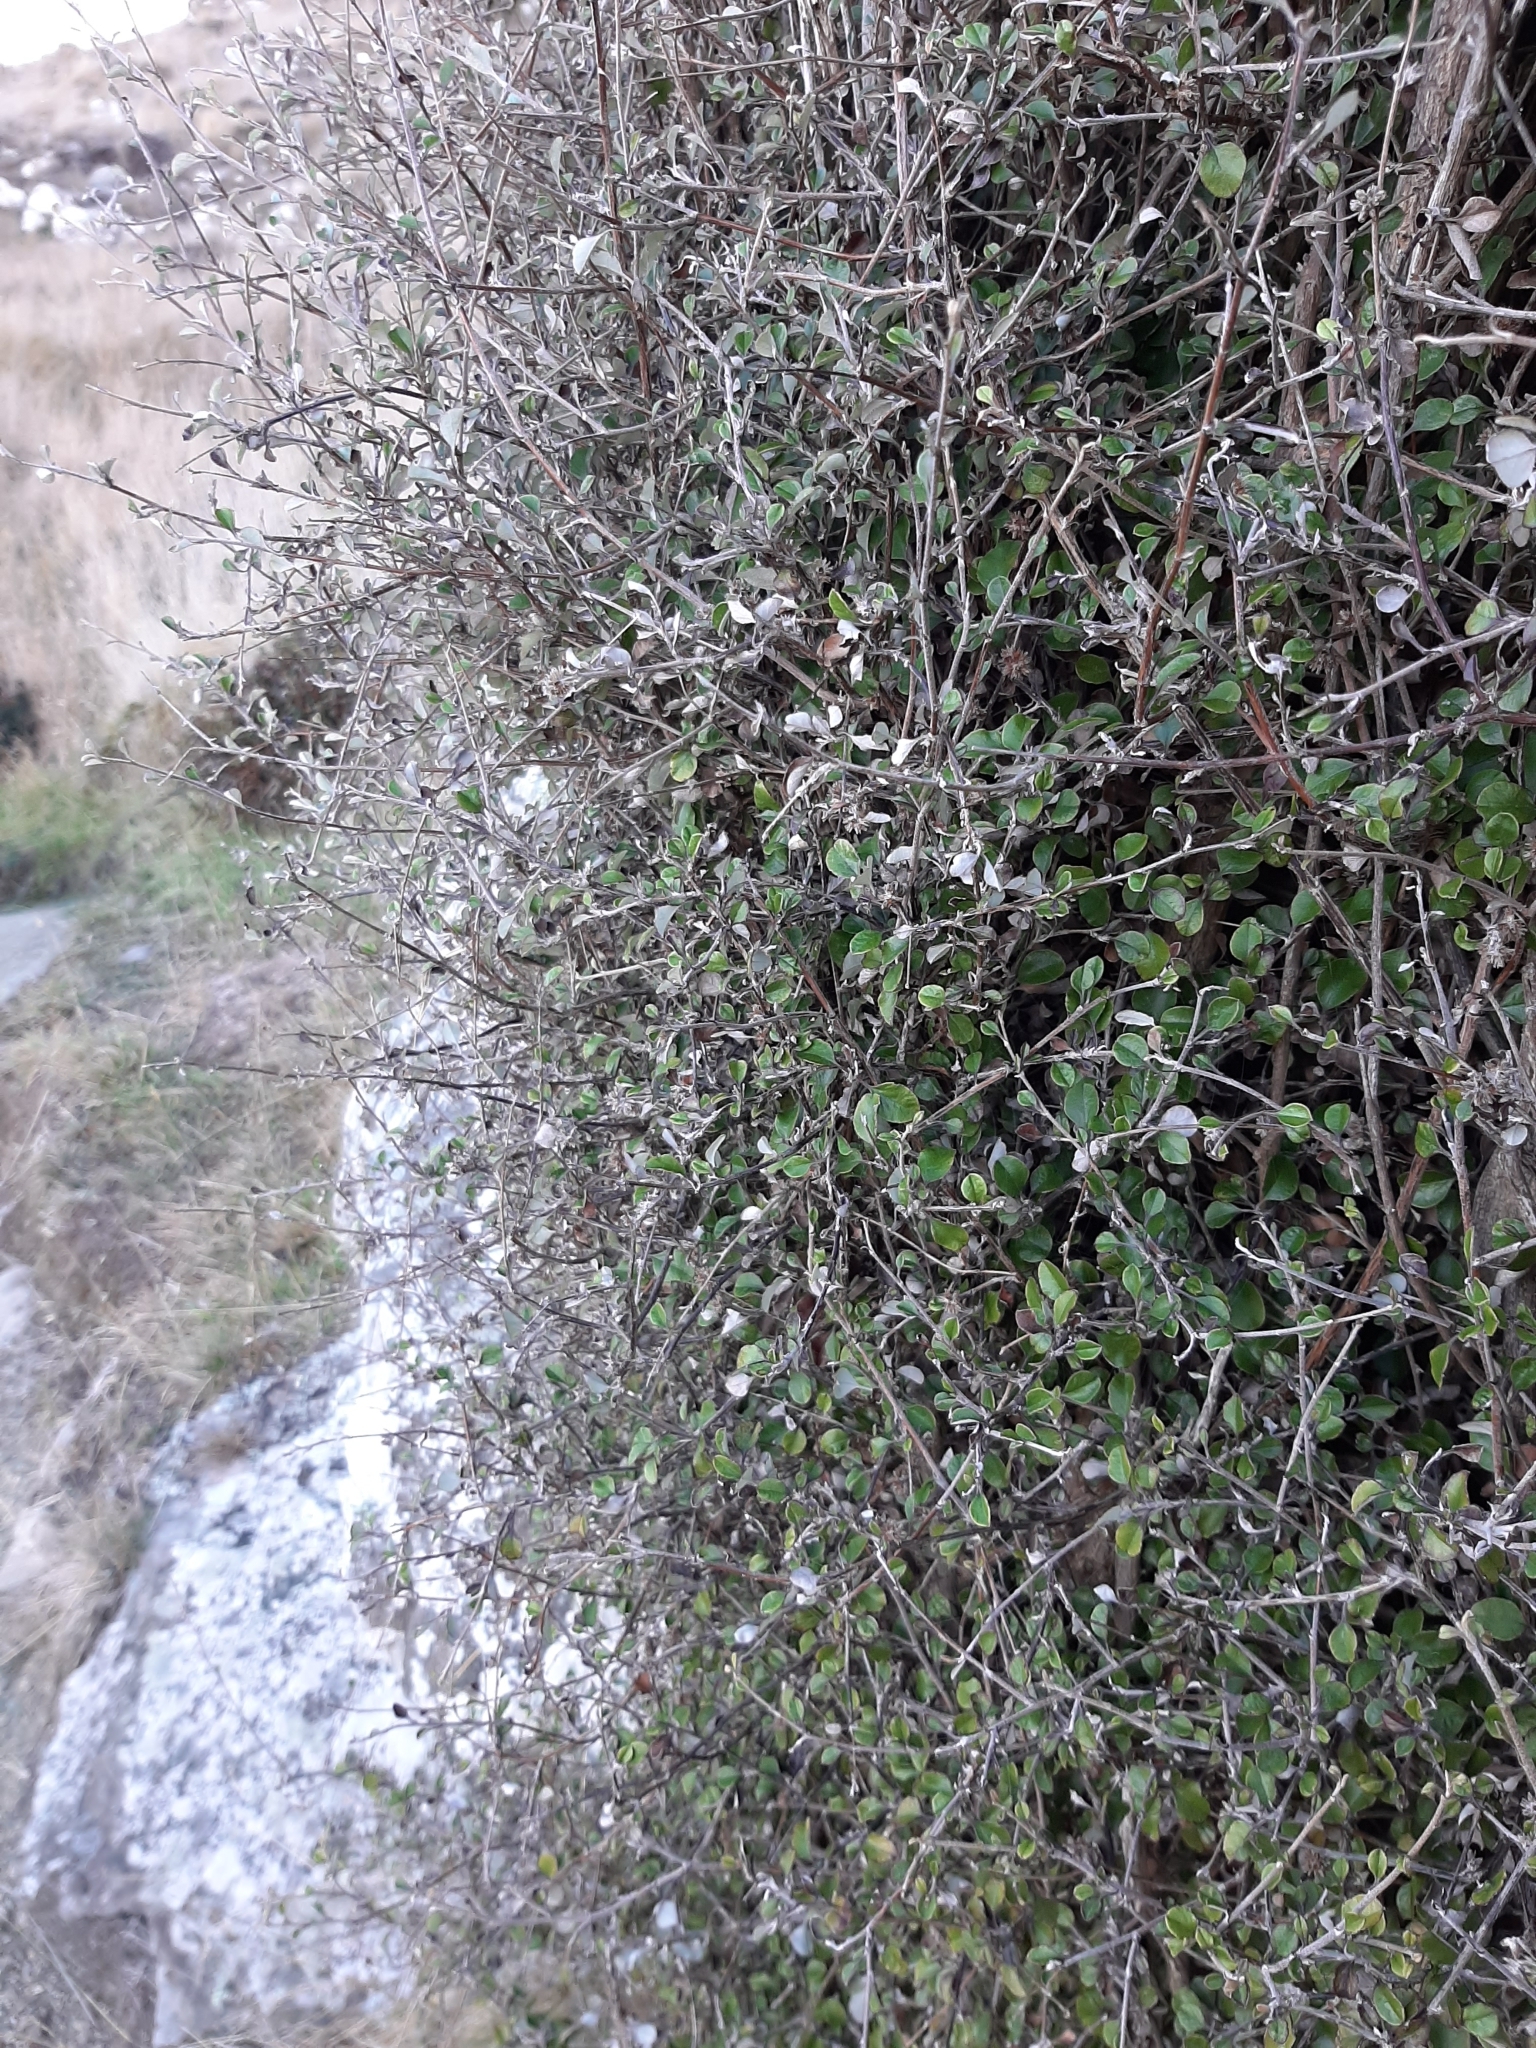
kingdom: Plantae
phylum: Tracheophyta
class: Magnoliopsida
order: Asterales
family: Asteraceae
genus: Ozothamnus
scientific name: Ozothamnus glomeratus
